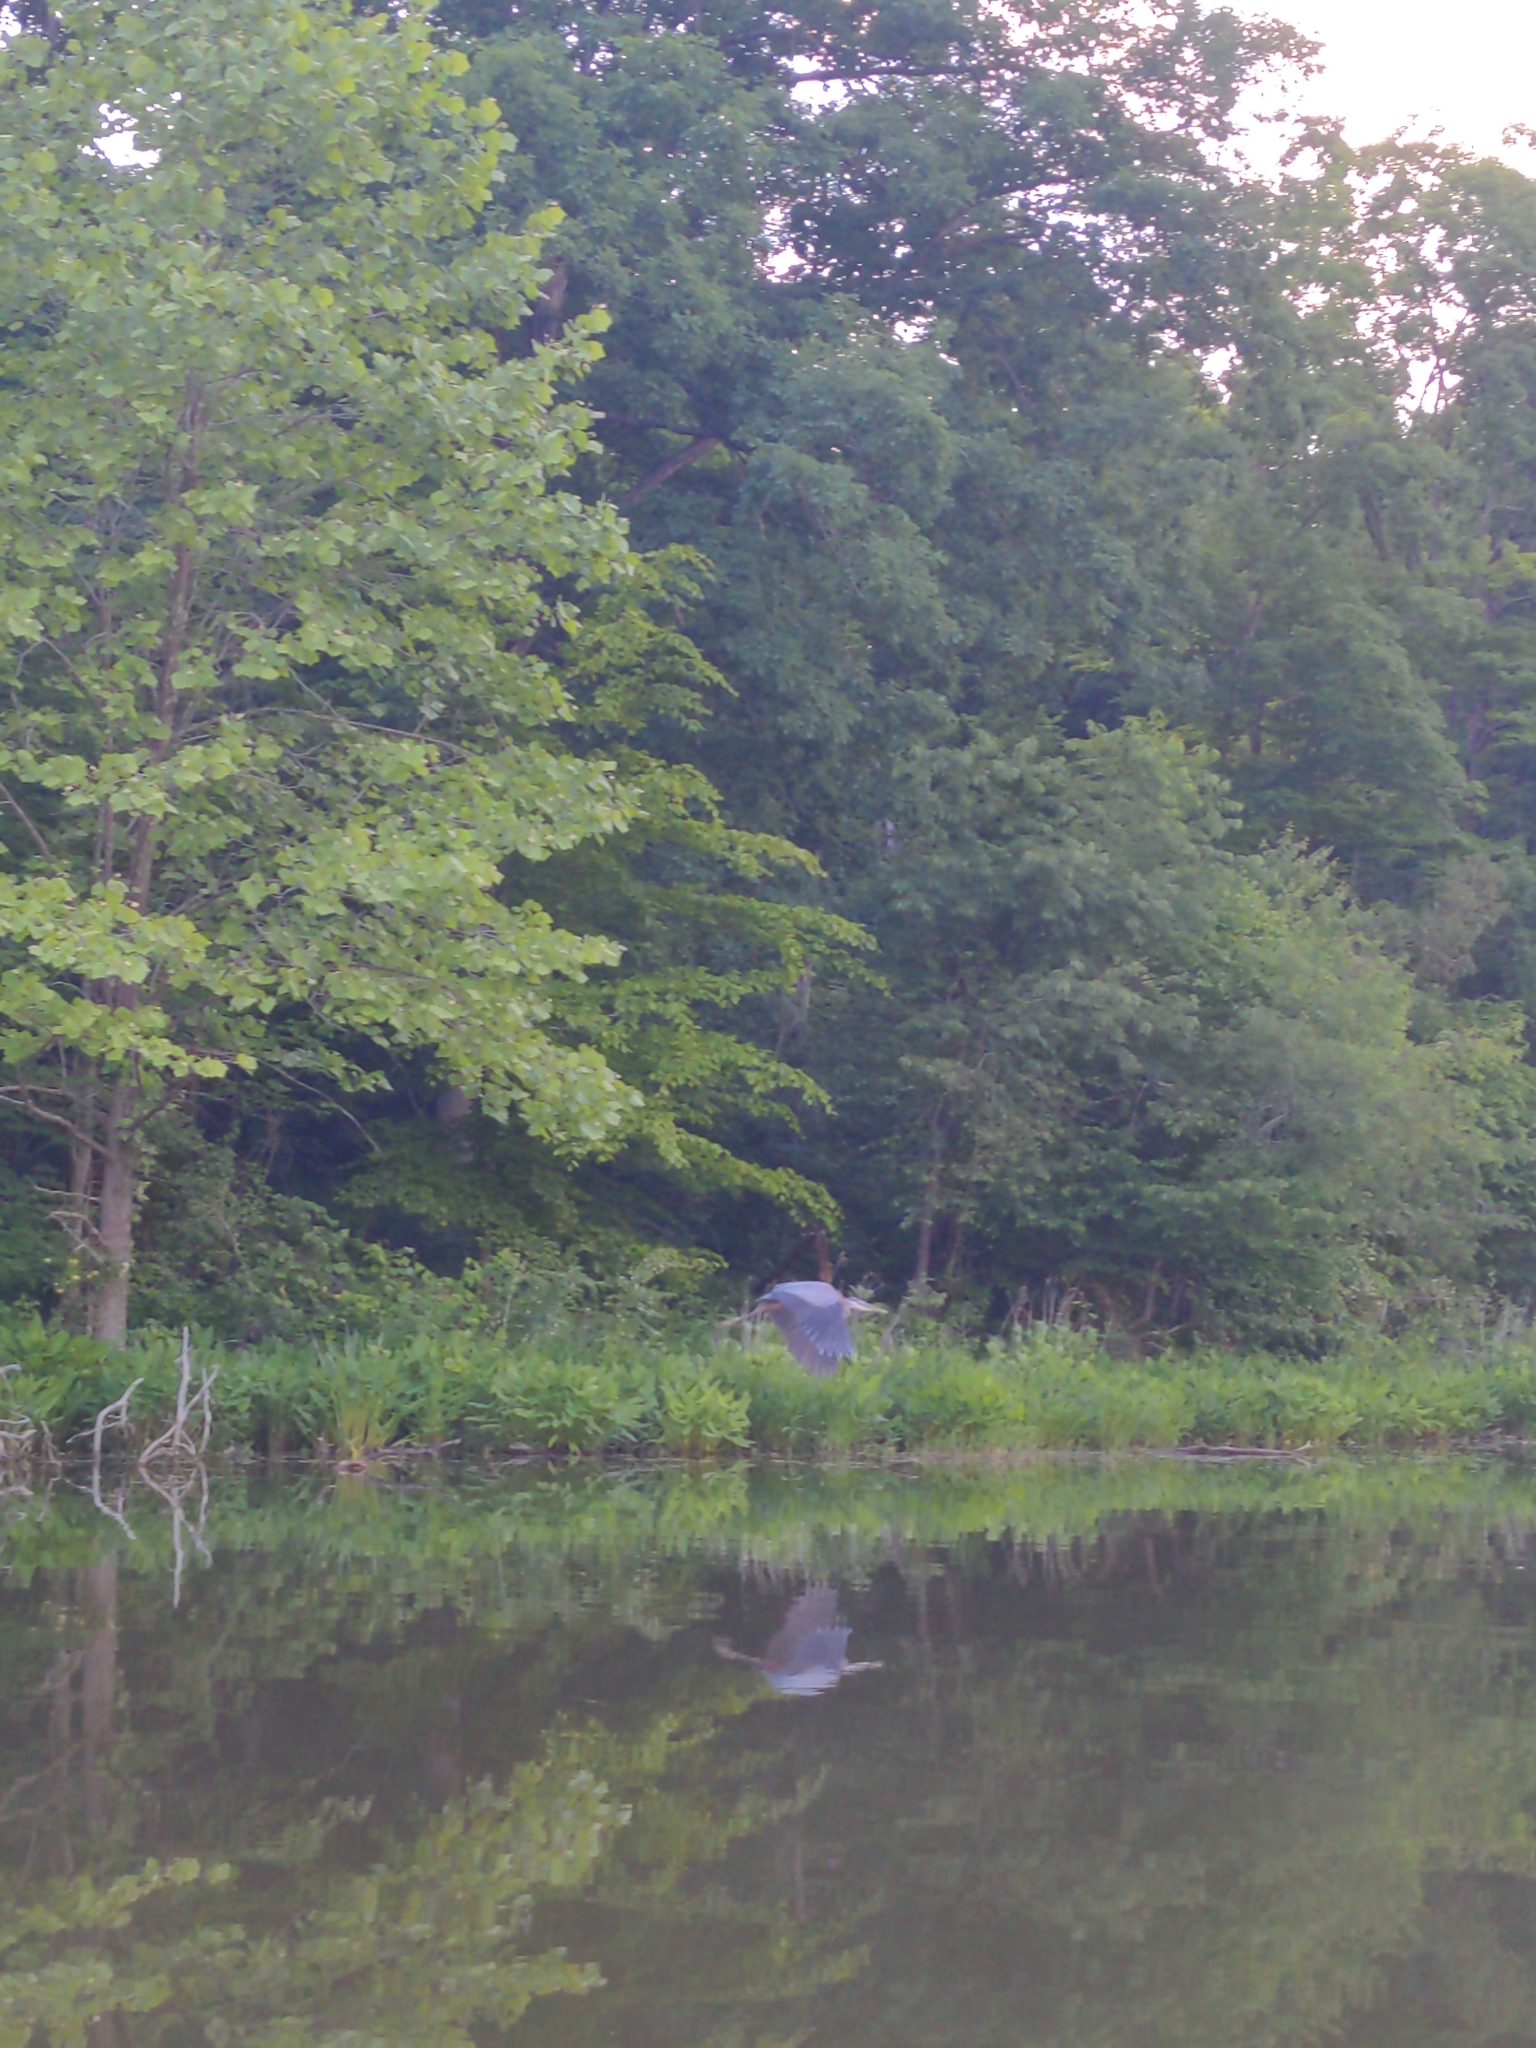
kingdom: Animalia
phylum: Chordata
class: Aves
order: Pelecaniformes
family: Ardeidae
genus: Ardea
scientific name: Ardea herodias
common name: Great blue heron
